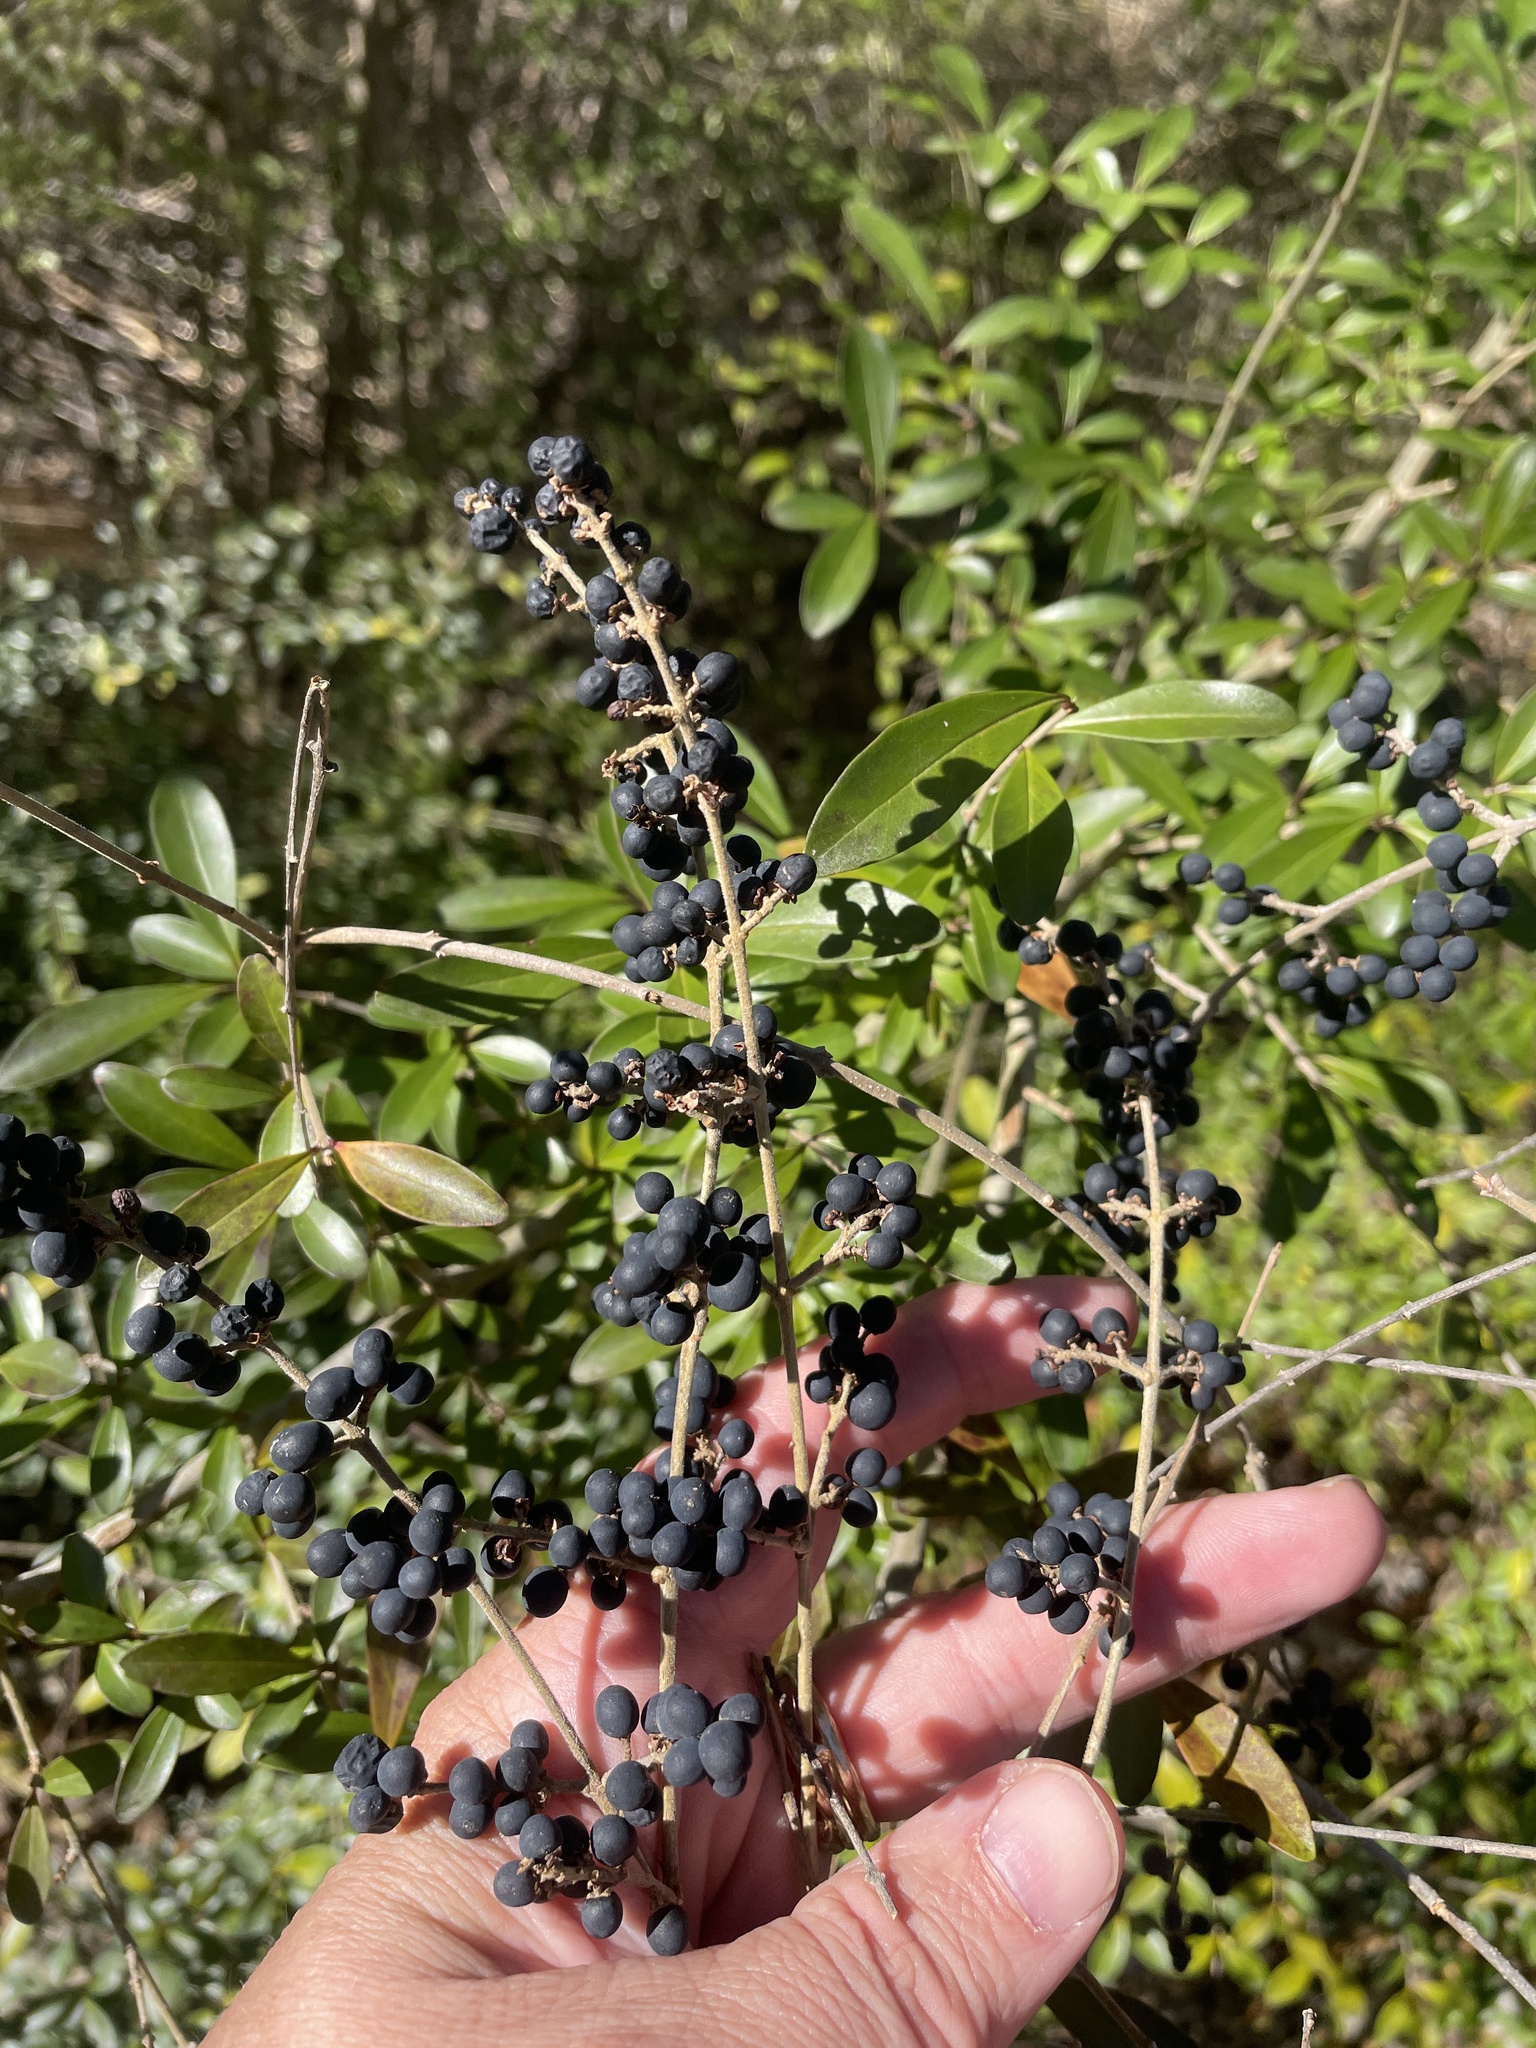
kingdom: Plantae
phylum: Tracheophyta
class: Magnoliopsida
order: Lamiales
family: Oleaceae
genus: Ligustrum
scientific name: Ligustrum quihoui
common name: Waxyleaf privet
